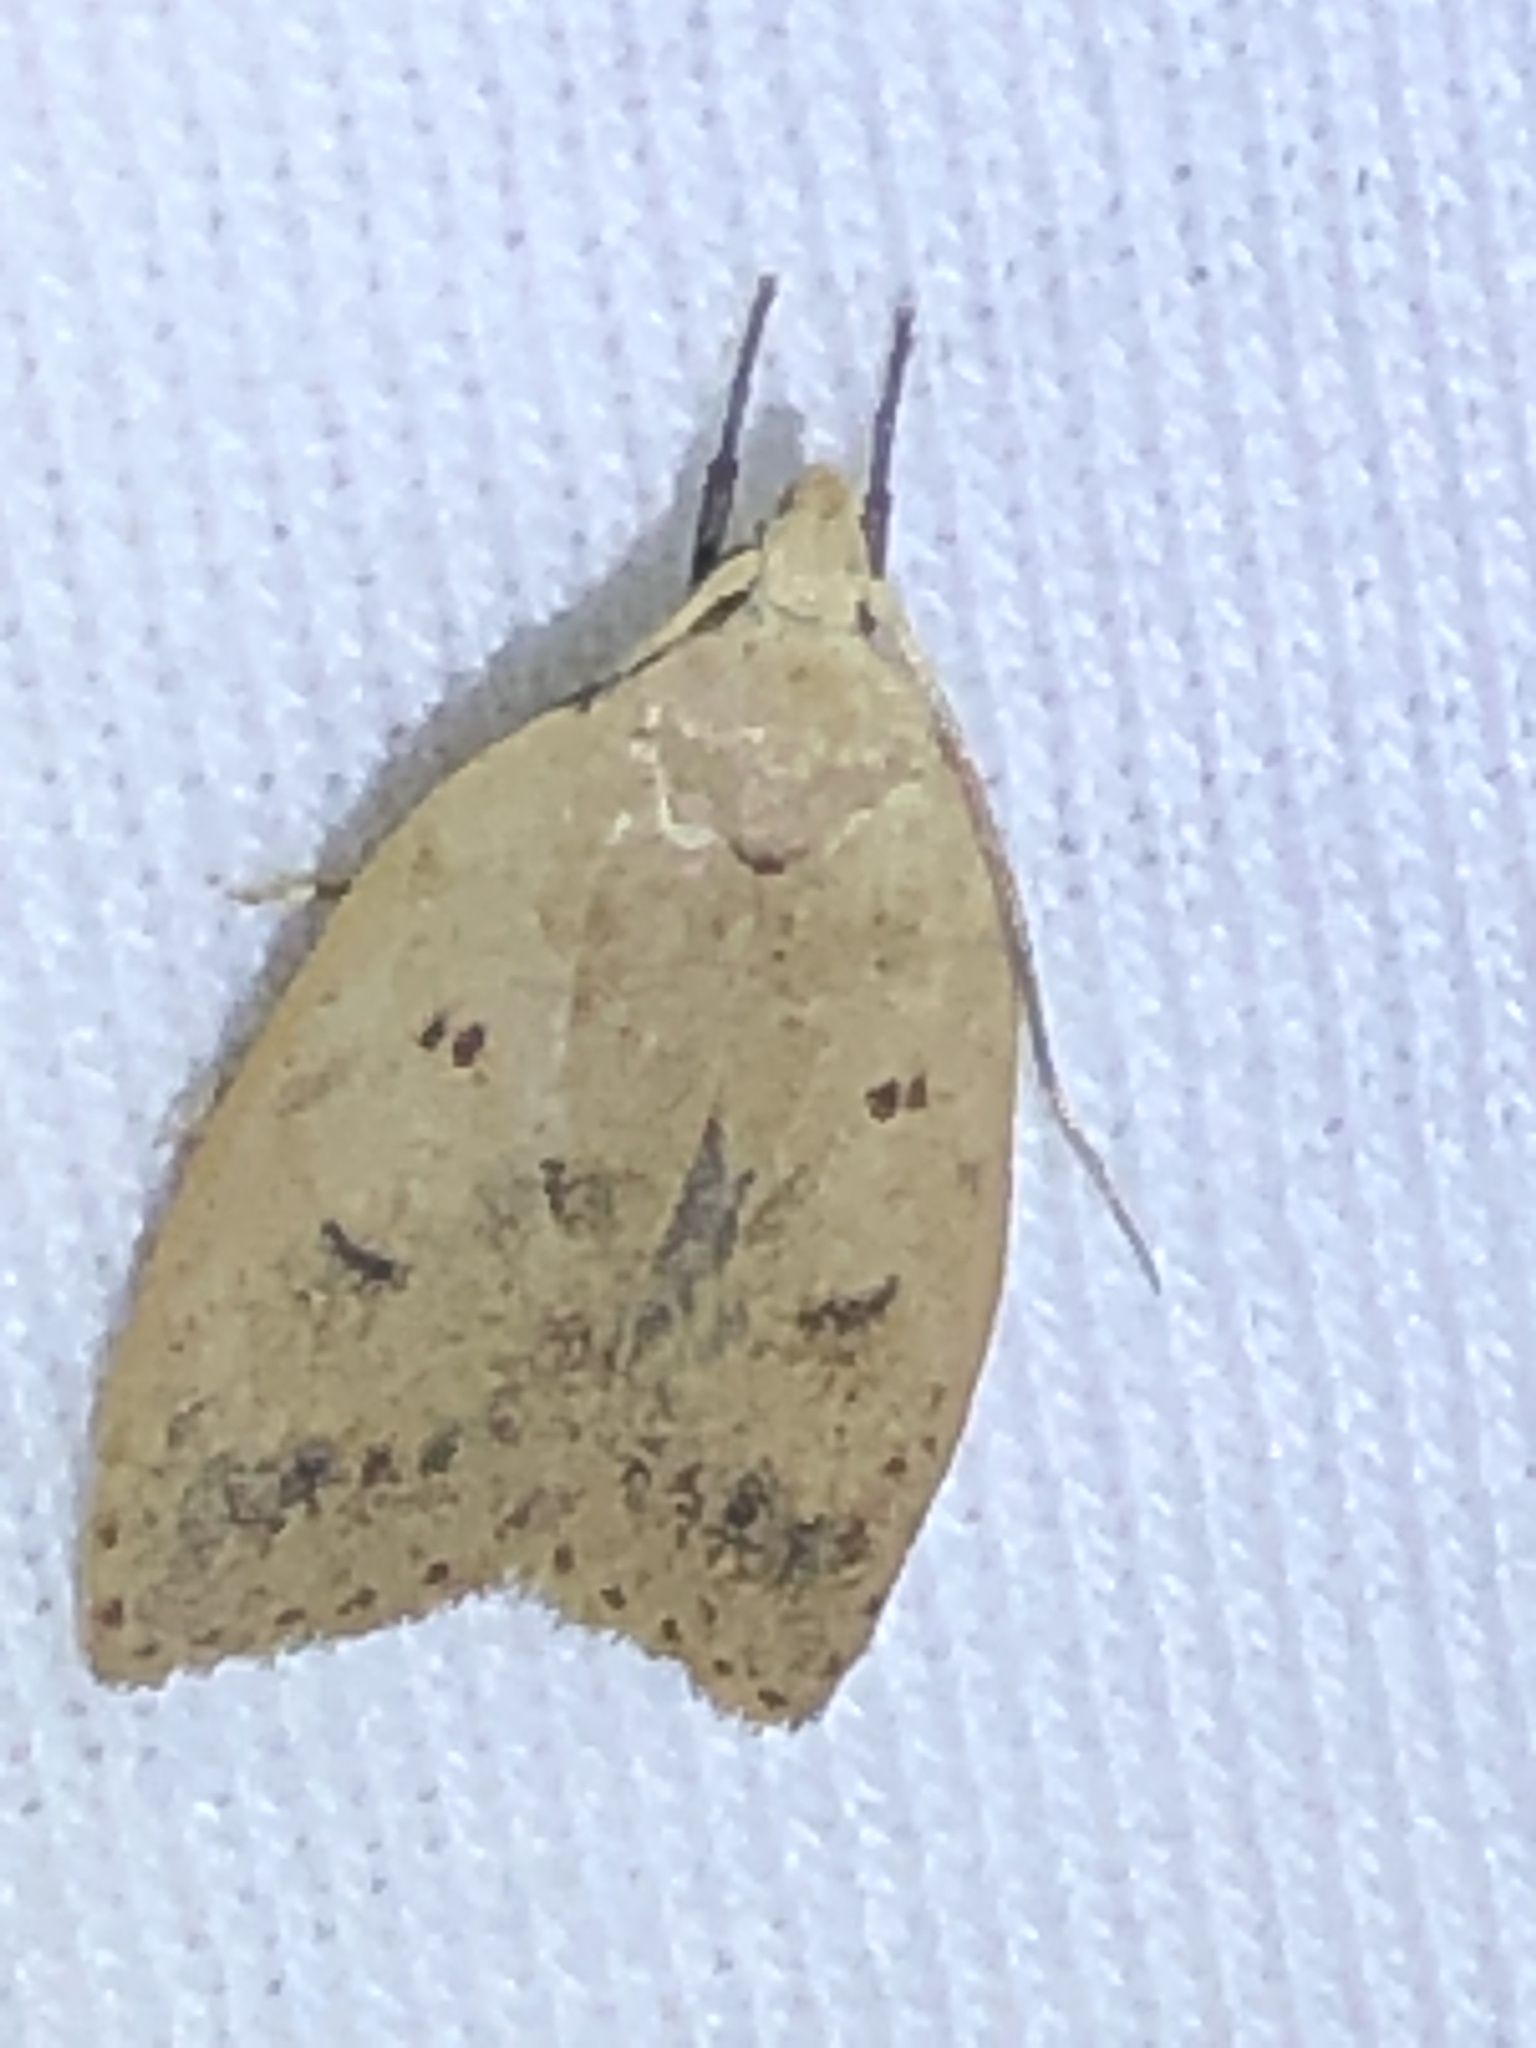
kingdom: Animalia
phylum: Arthropoda
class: Insecta
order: Lepidoptera
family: Peleopodidae
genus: Machimia
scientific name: Machimia tentoriferella
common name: Gold-striped leaftier moth
